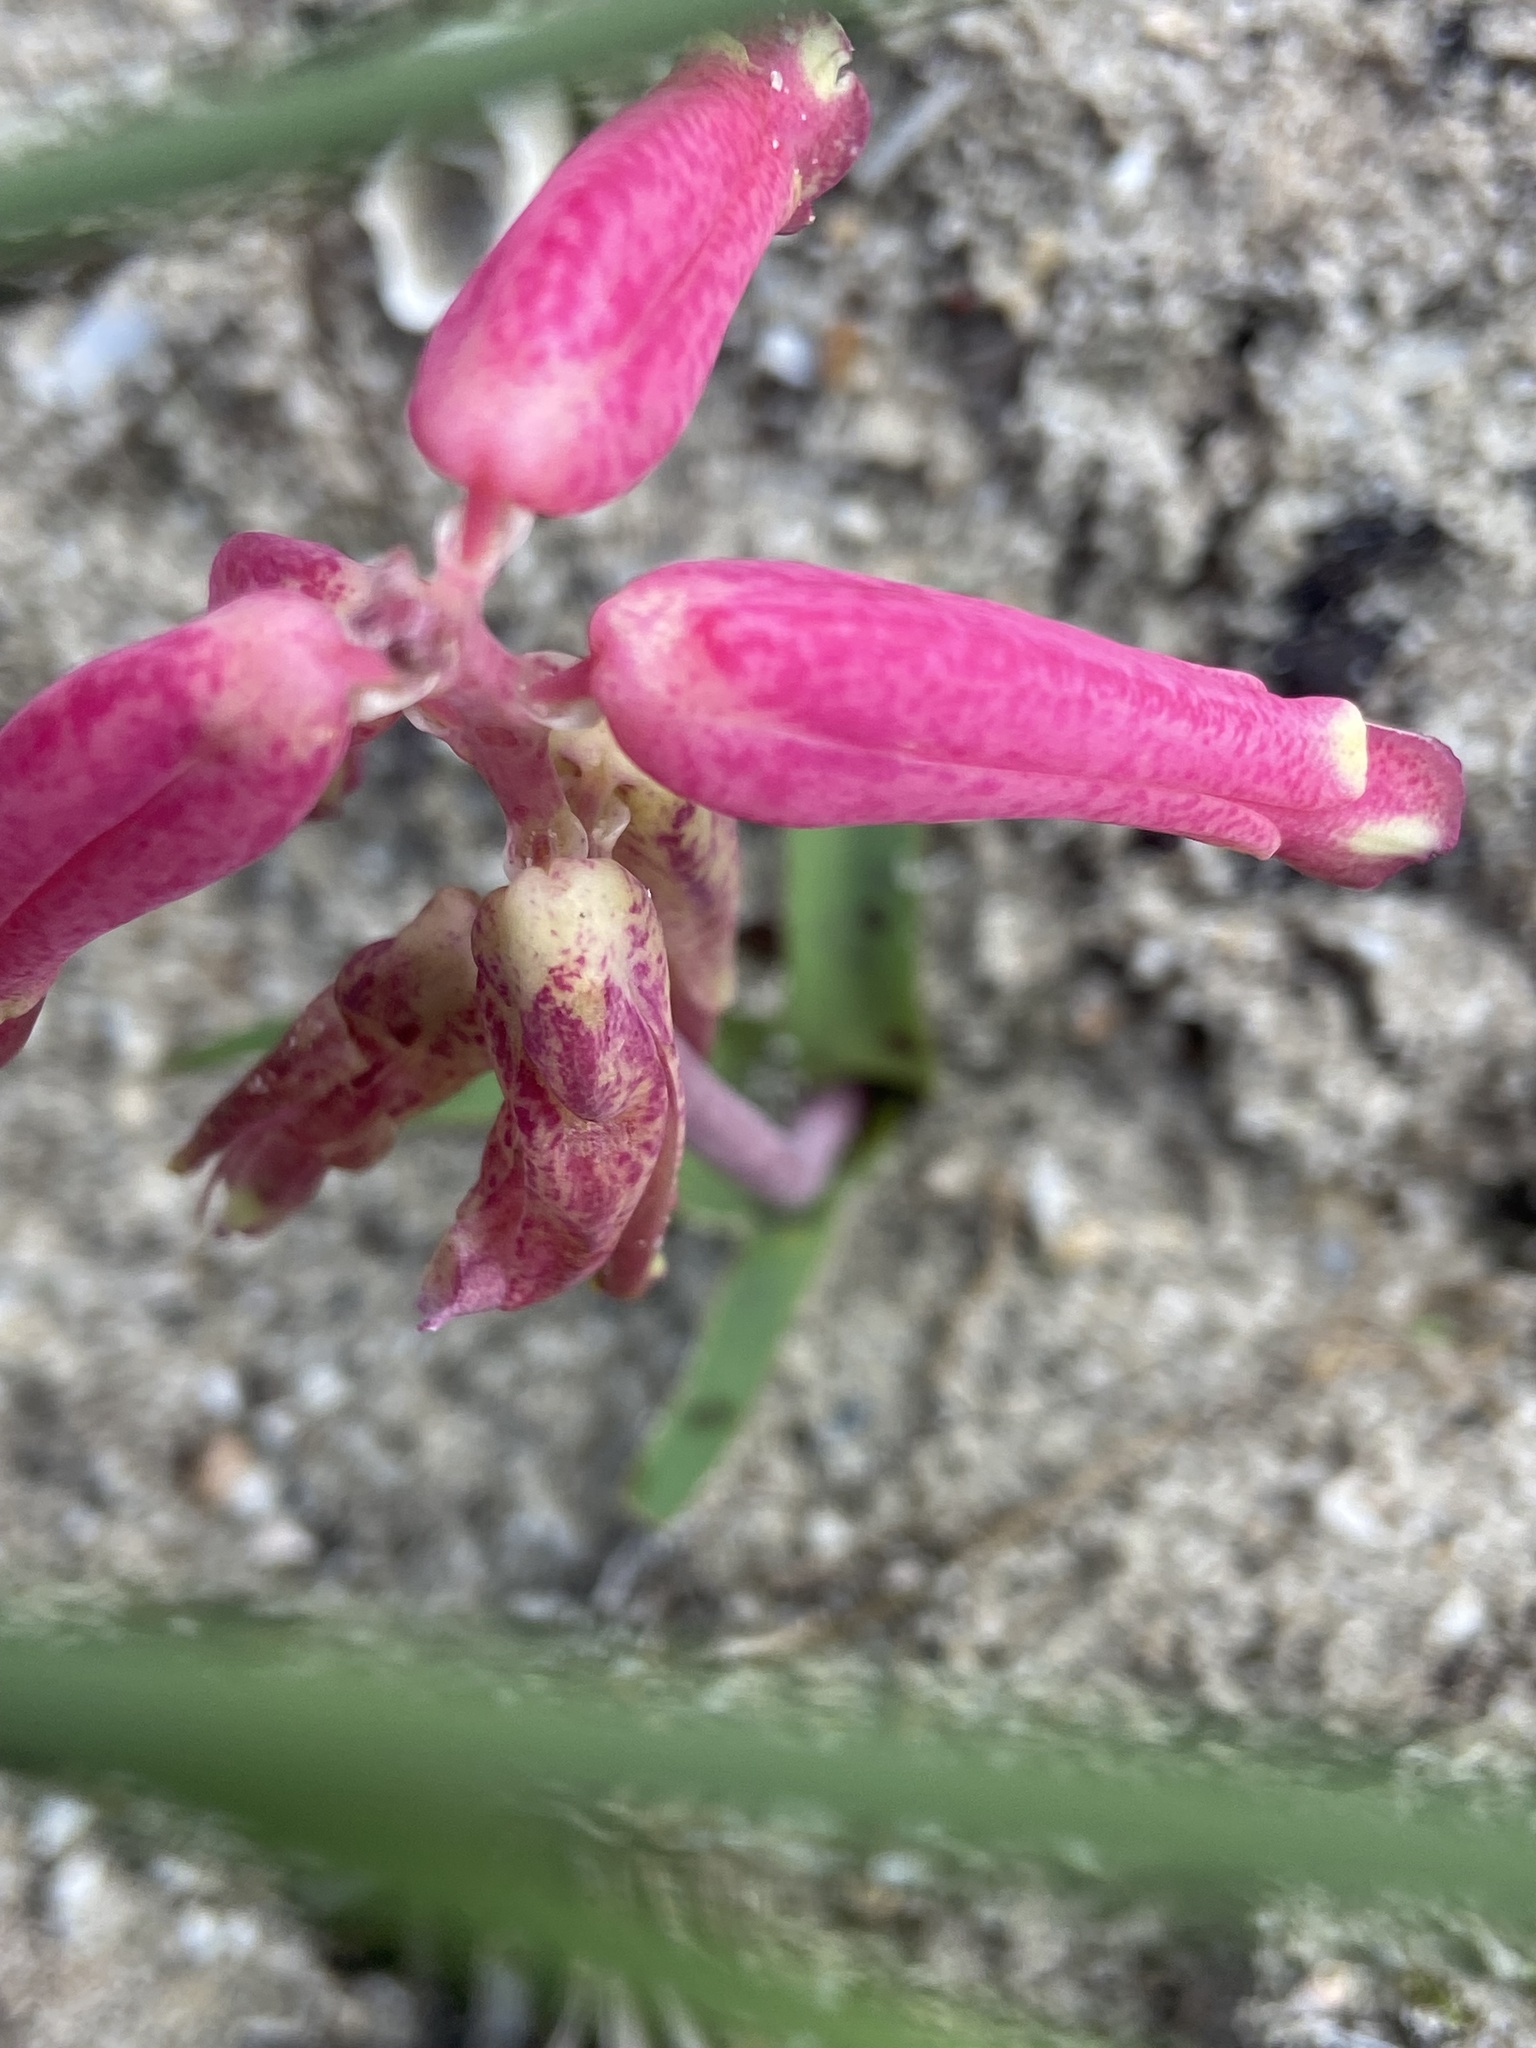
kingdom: Plantae
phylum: Tracheophyta
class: Liliopsida
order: Asparagales
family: Asparagaceae
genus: Lachenalia
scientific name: Lachenalia punctata
